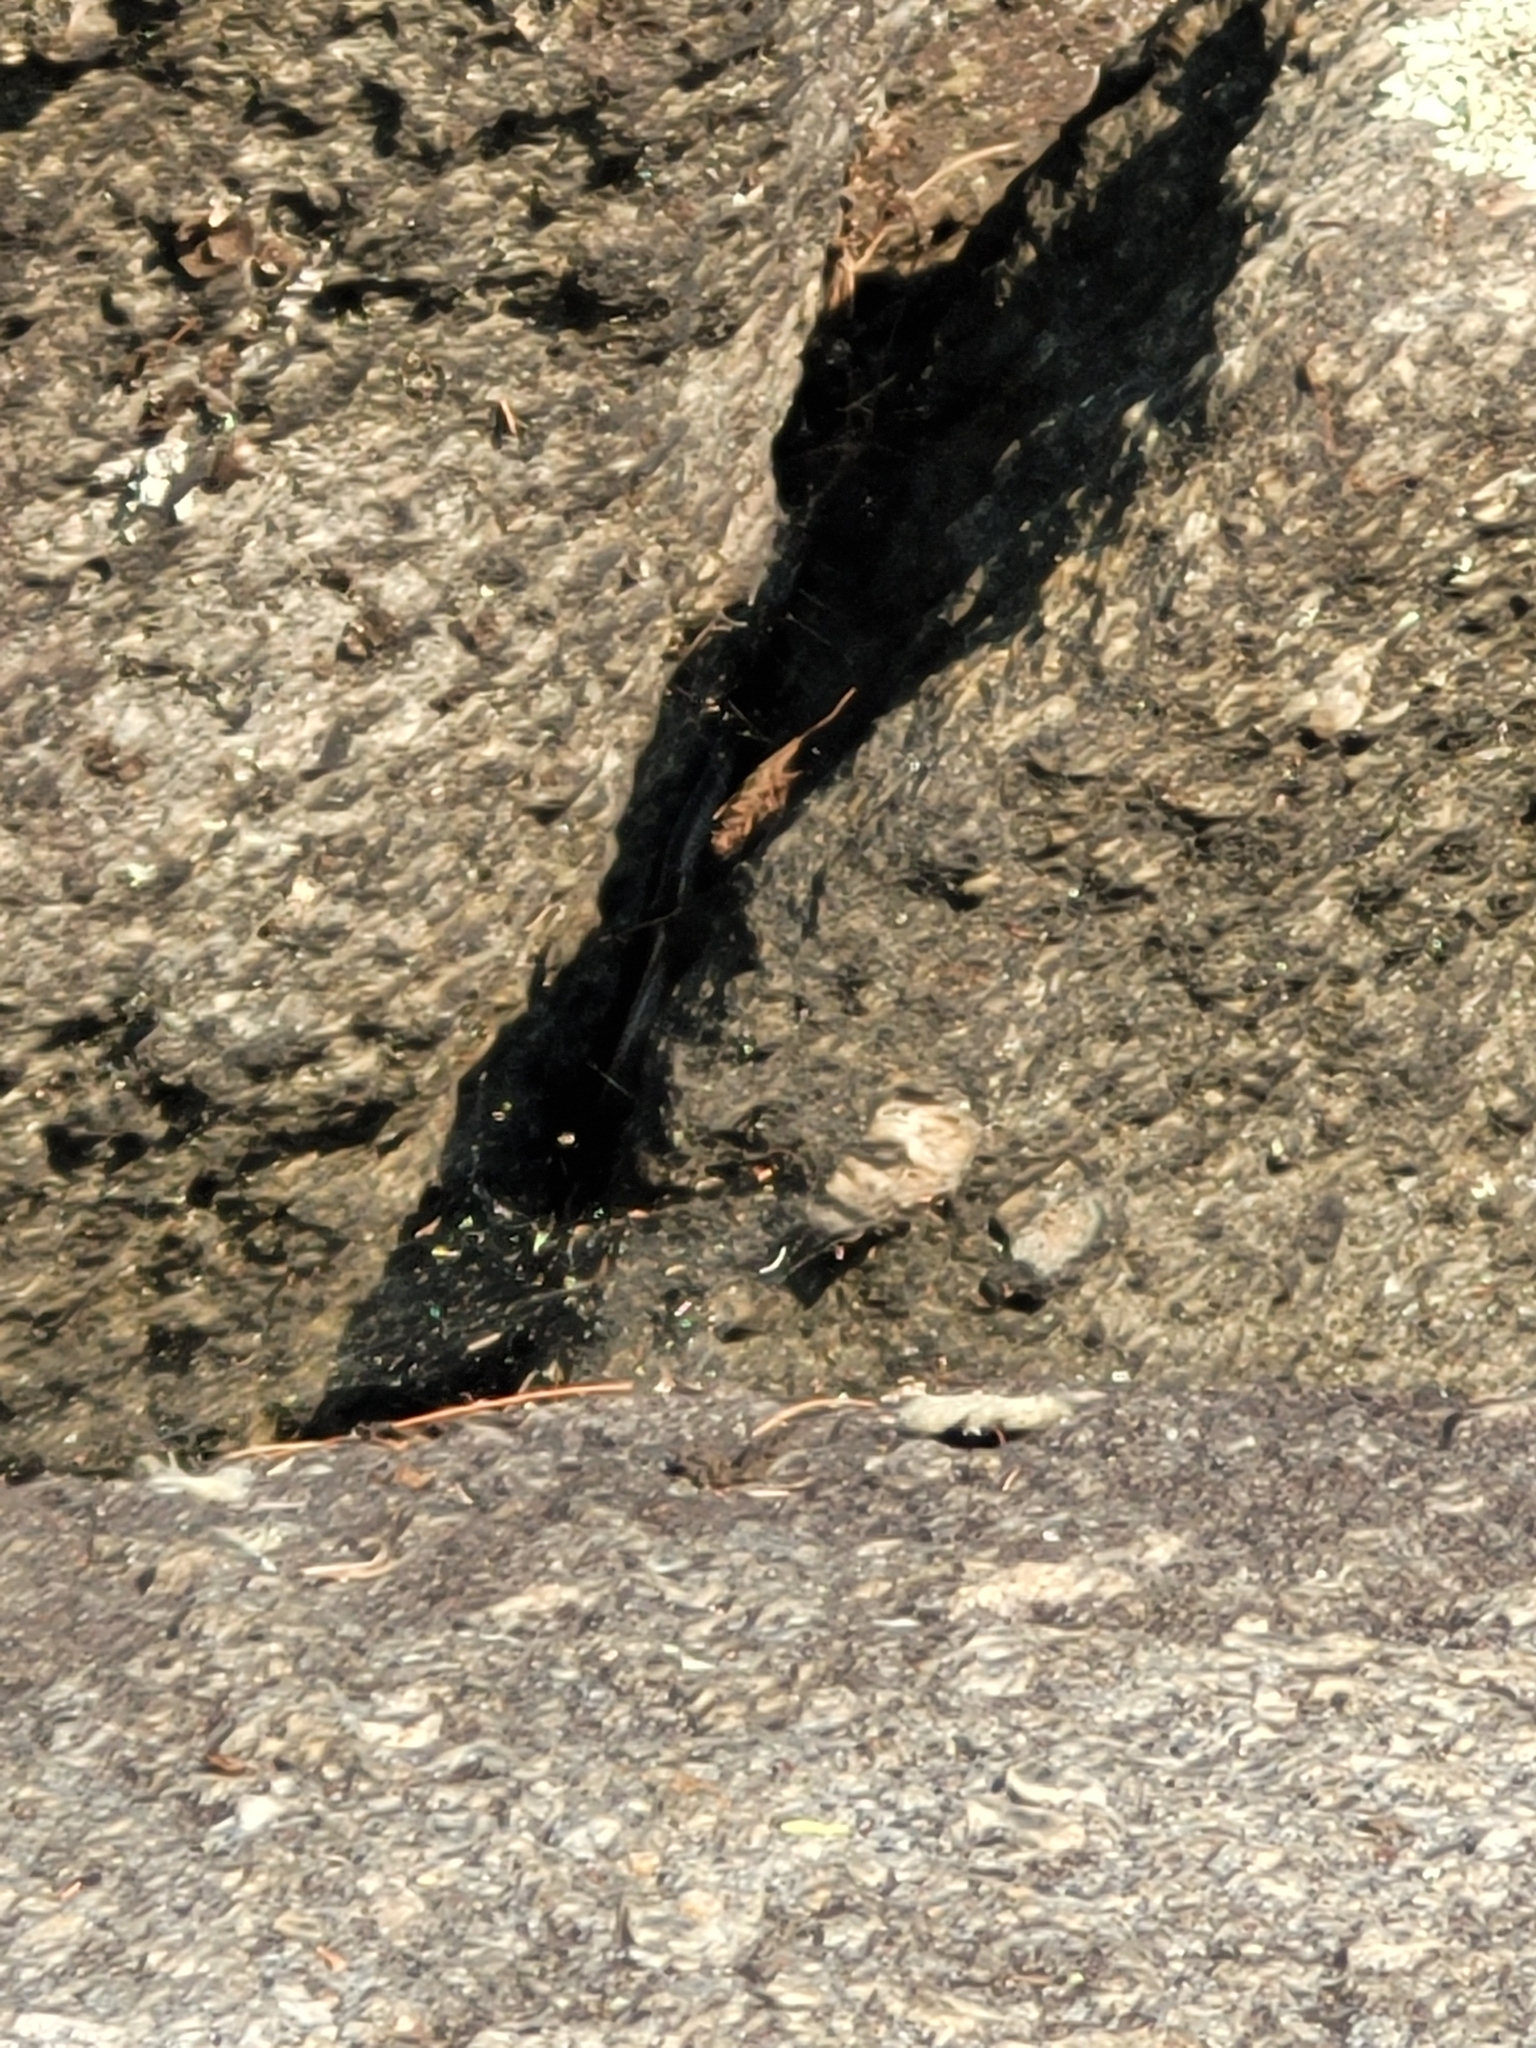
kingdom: Animalia
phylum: Chordata
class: Squamata
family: Scincidae
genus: Plestiodon
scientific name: Plestiodon fasciatus
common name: Five-lined skink
